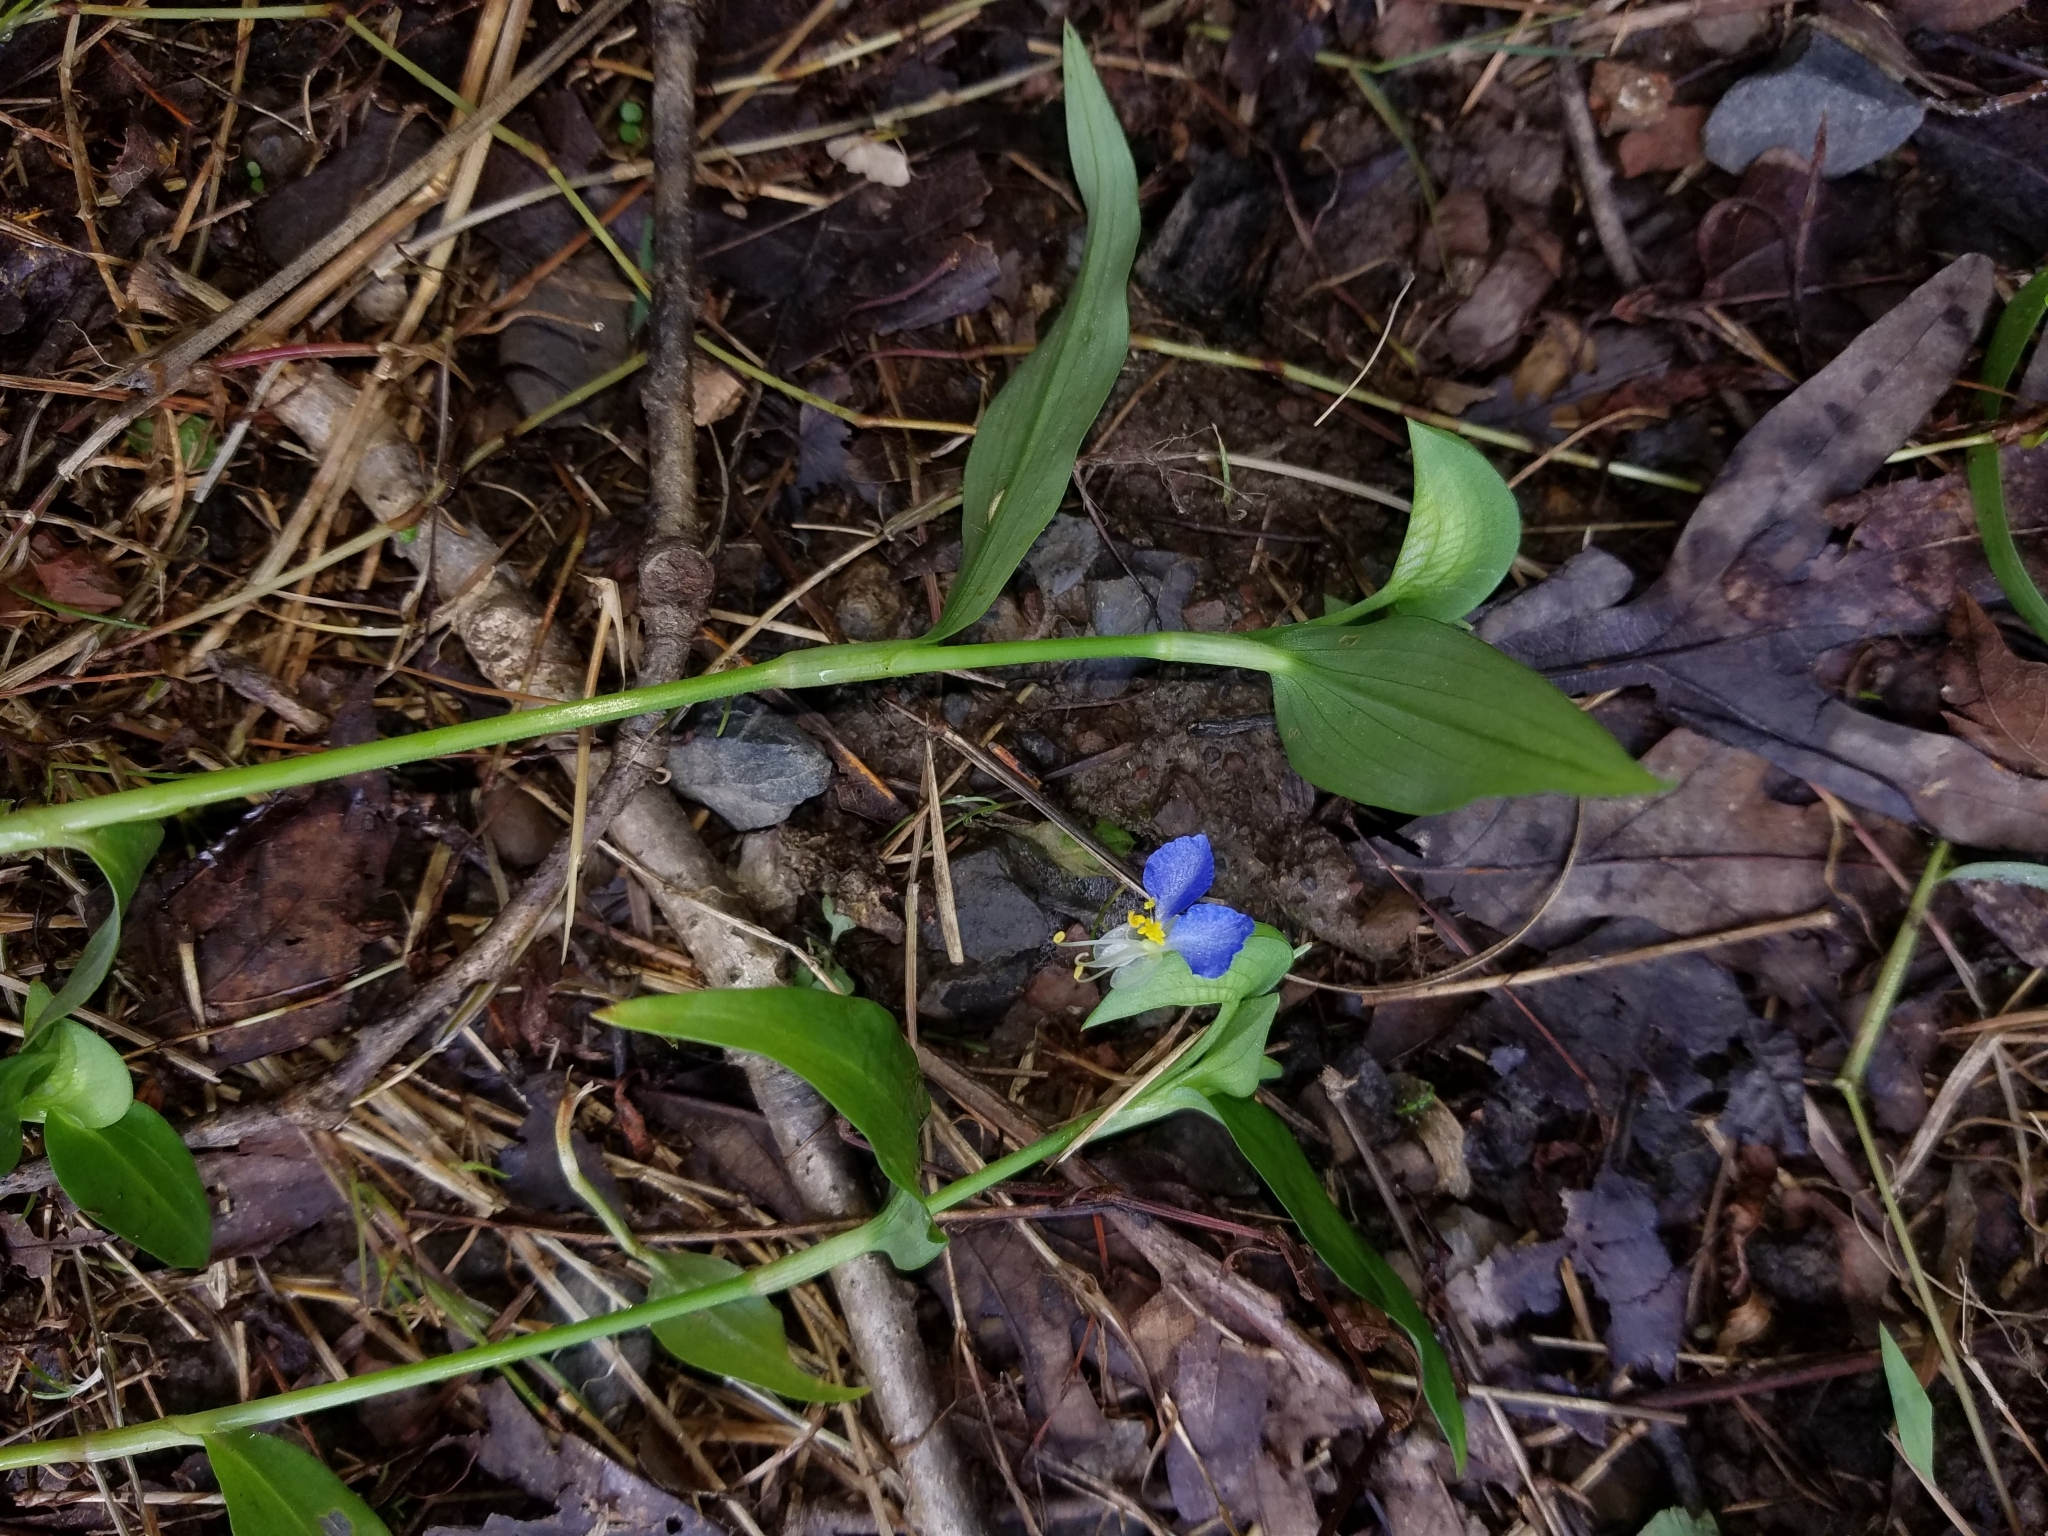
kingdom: Plantae
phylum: Tracheophyta
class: Liliopsida
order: Commelinales
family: Commelinaceae
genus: Commelina
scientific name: Commelina communis
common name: Asiatic dayflower
